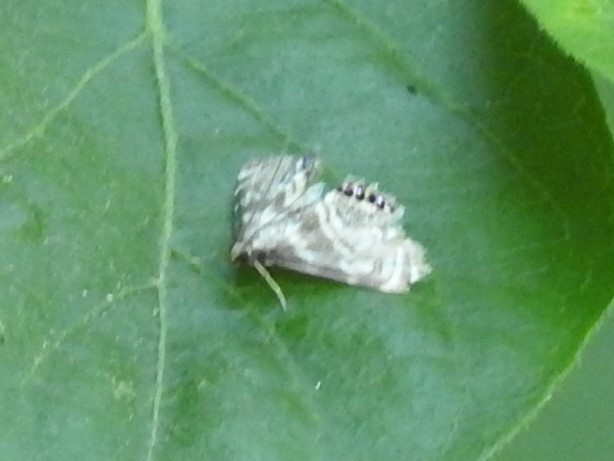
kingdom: Animalia
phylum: Arthropoda
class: Insecta
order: Lepidoptera
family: Crambidae
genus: Petrophila
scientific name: Petrophila canadensis
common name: Canadian petrophila
